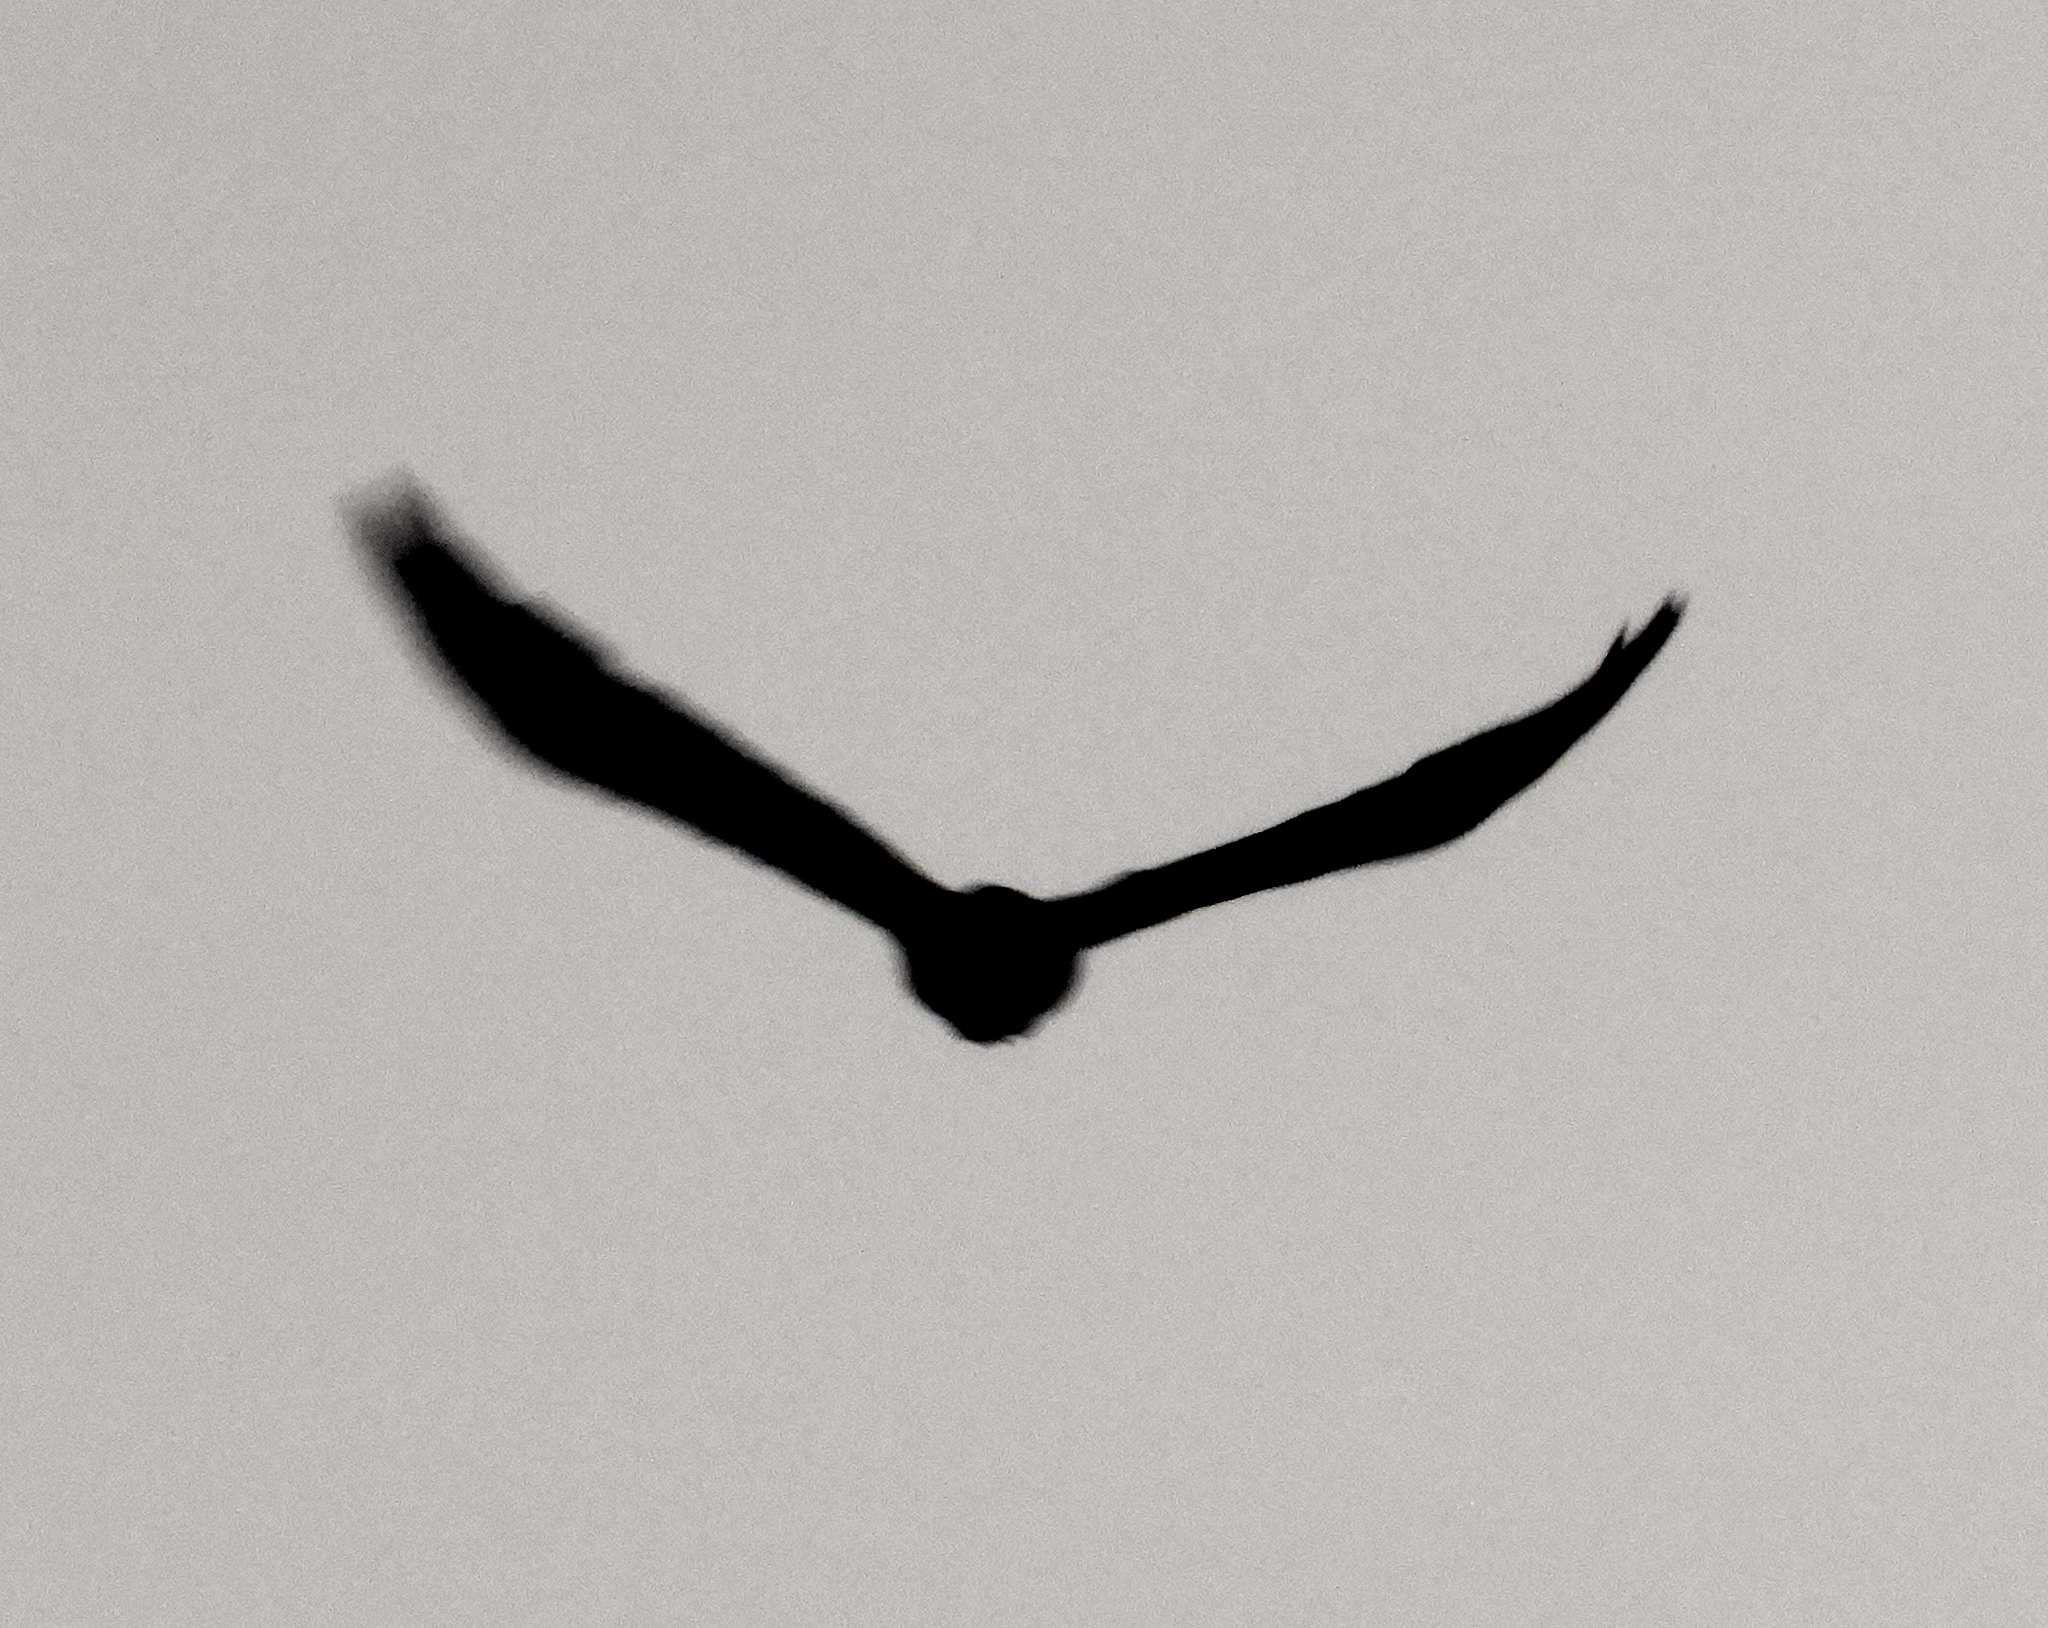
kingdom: Animalia
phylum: Chordata
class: Aves
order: Passeriformes
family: Corvidae
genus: Corvus
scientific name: Corvus sinaloae
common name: Sinaloa crow
